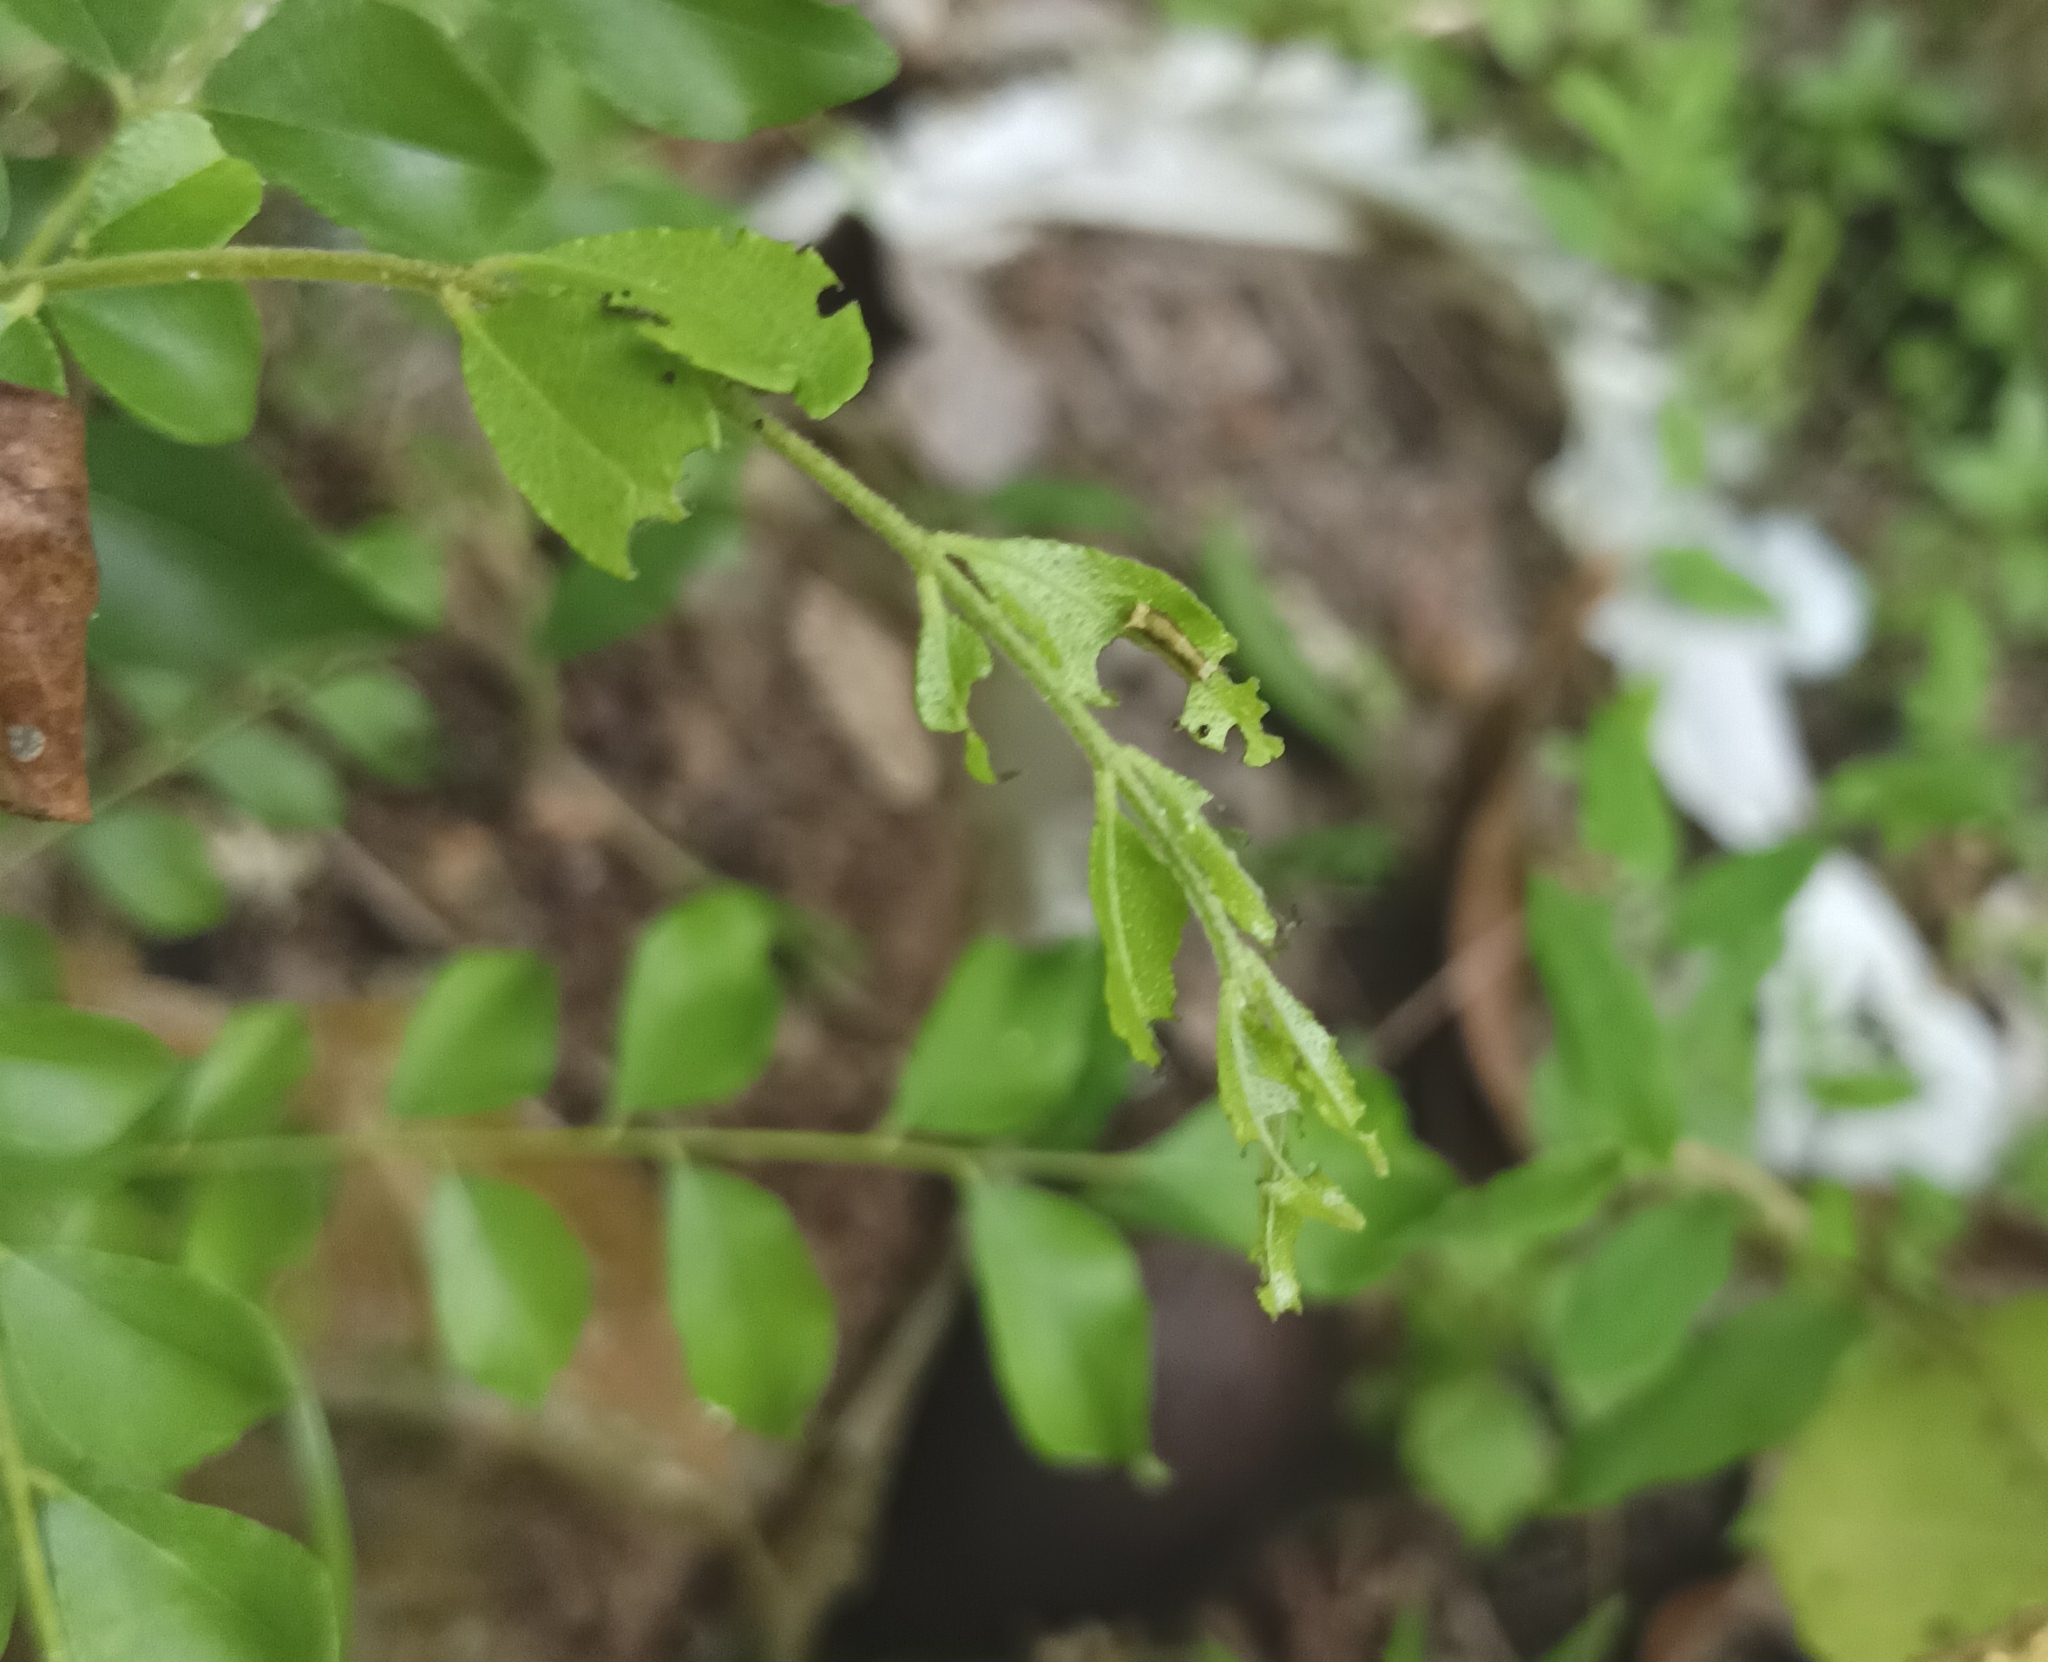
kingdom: Animalia
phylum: Arthropoda
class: Insecta
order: Lepidoptera
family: Papilionidae
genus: Papilio
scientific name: Papilio polytes
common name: Common mormon
